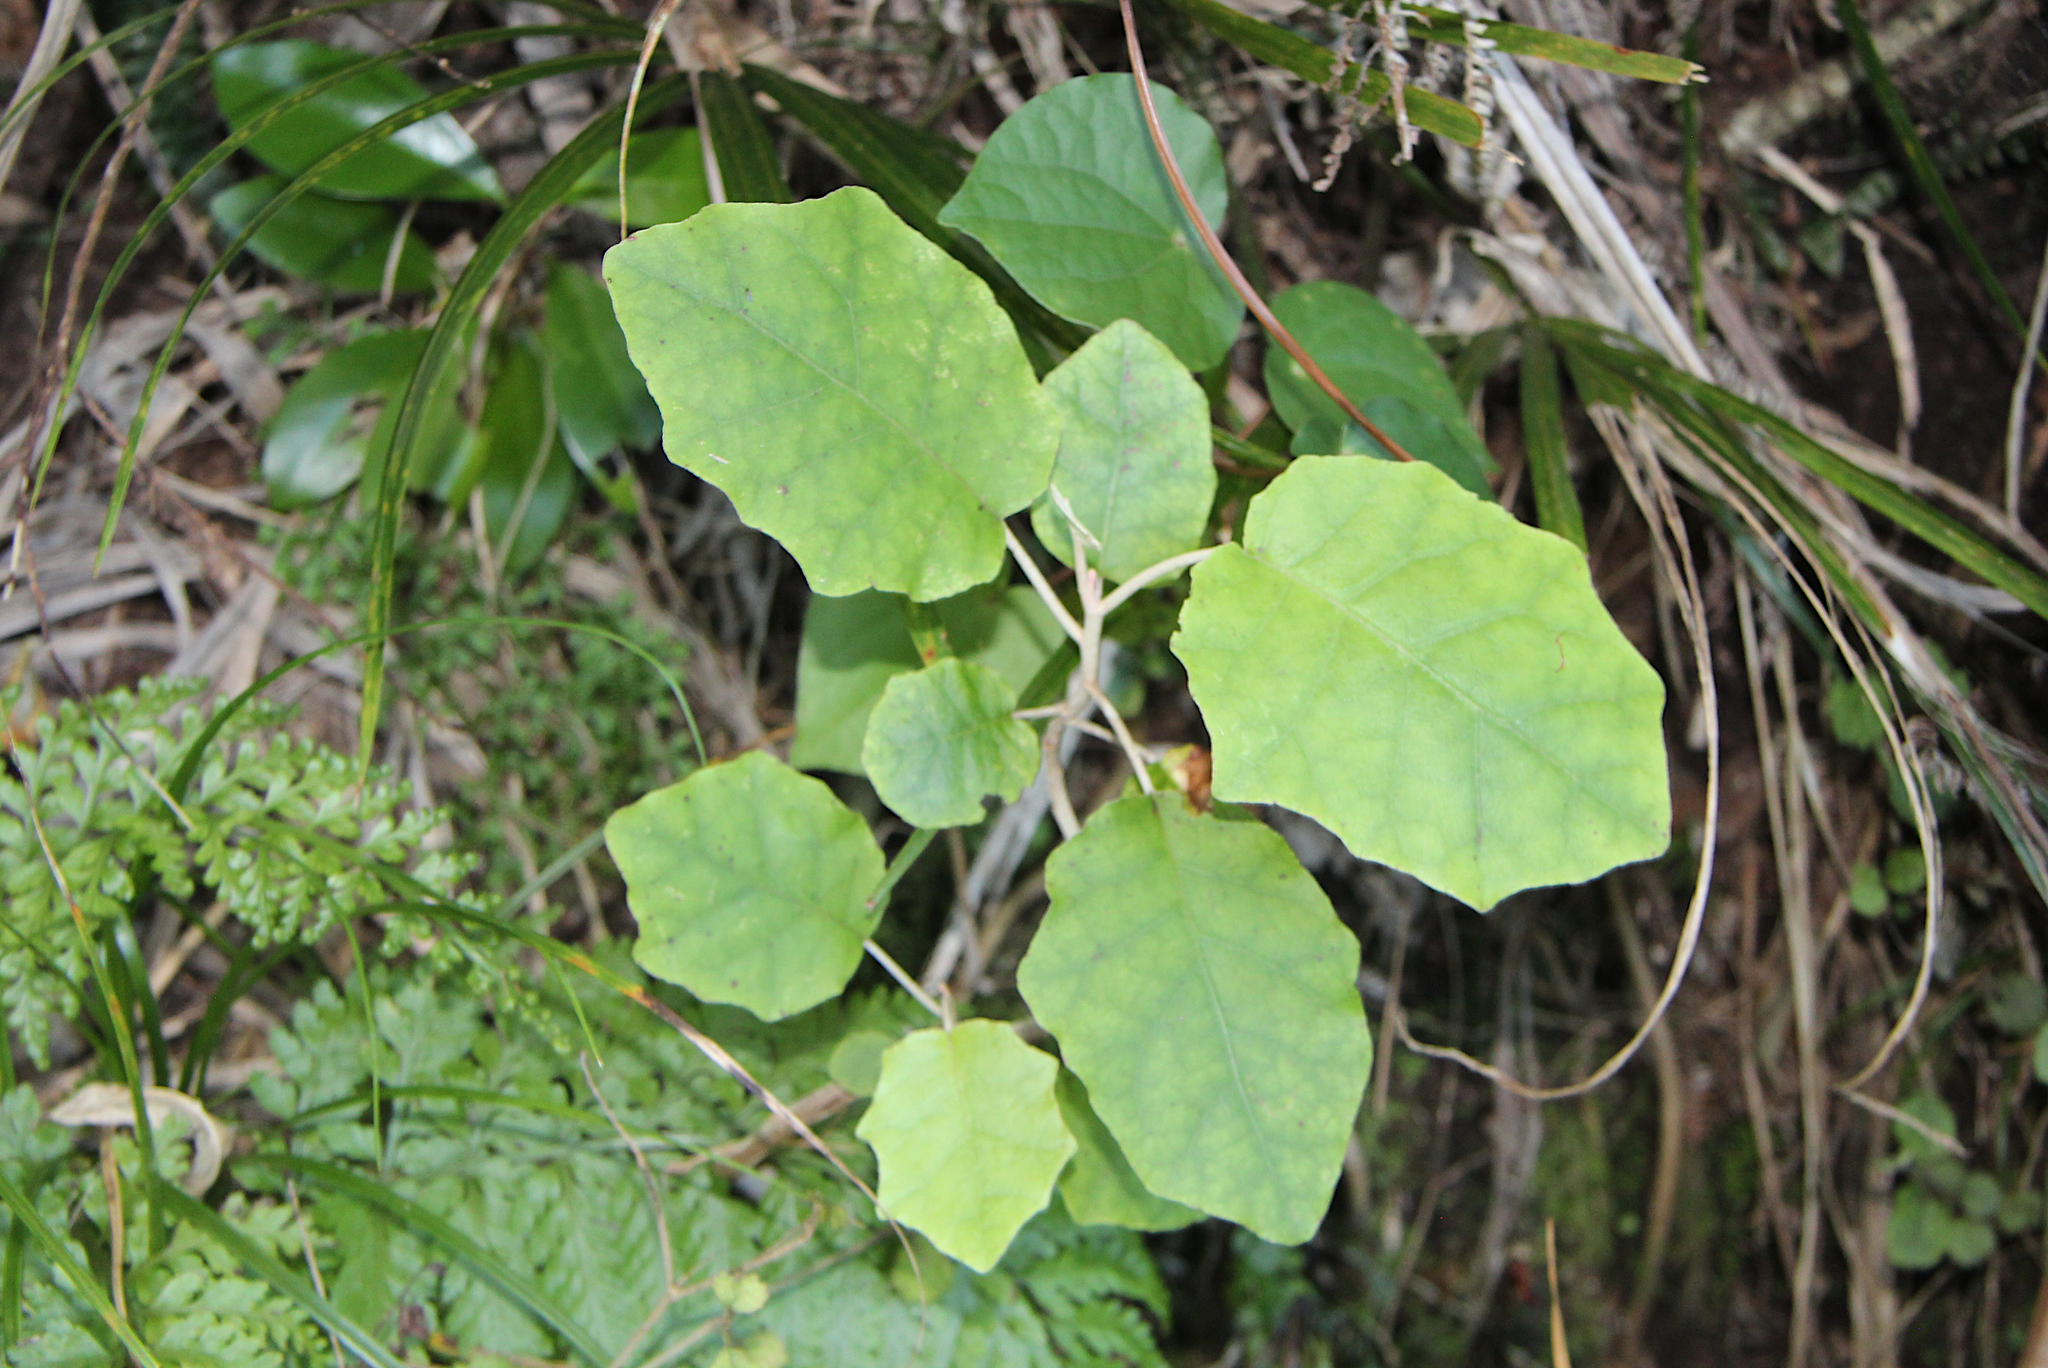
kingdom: Plantae
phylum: Tracheophyta
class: Magnoliopsida
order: Asterales
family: Asteraceae
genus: Brachyglottis
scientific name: Brachyglottis repanda
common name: Hedge ragwort
